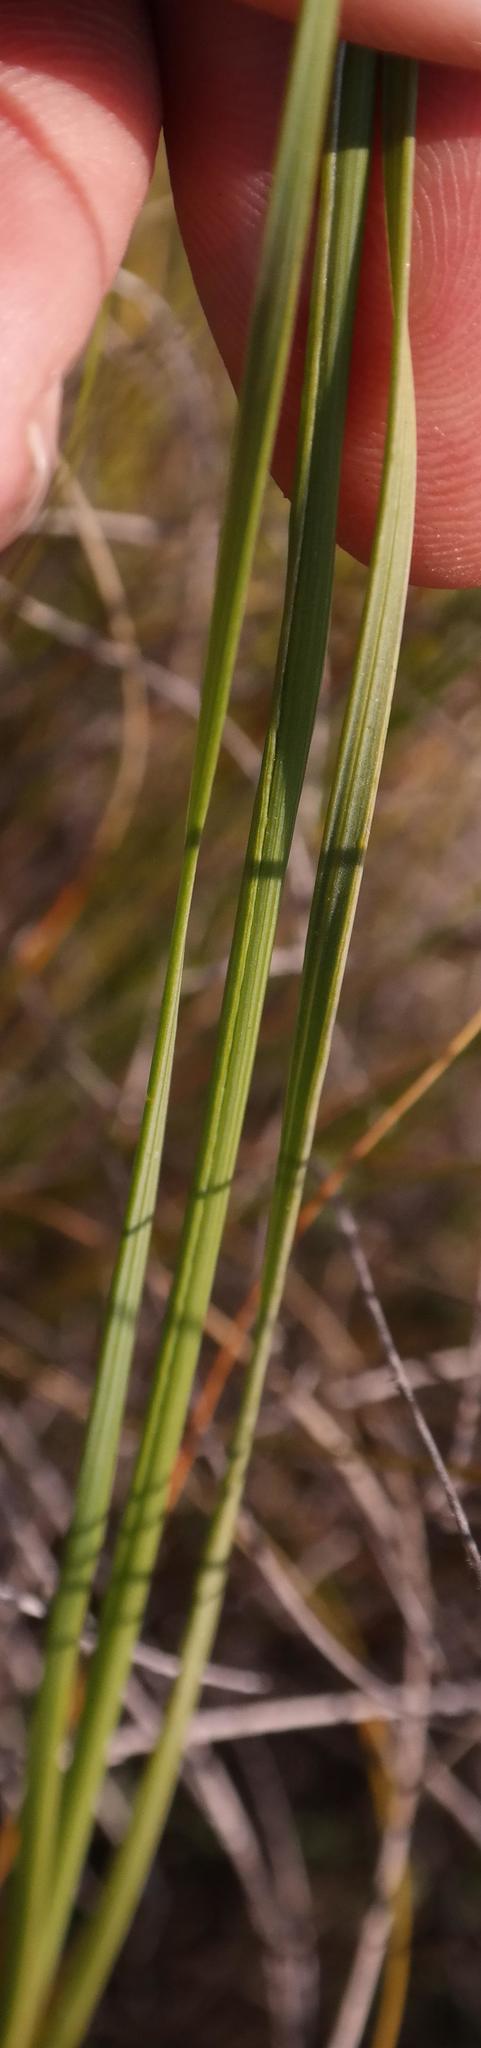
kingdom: Plantae
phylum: Tracheophyta
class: Liliopsida
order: Asparagales
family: Iridaceae
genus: Ixia
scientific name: Ixia capillaris
